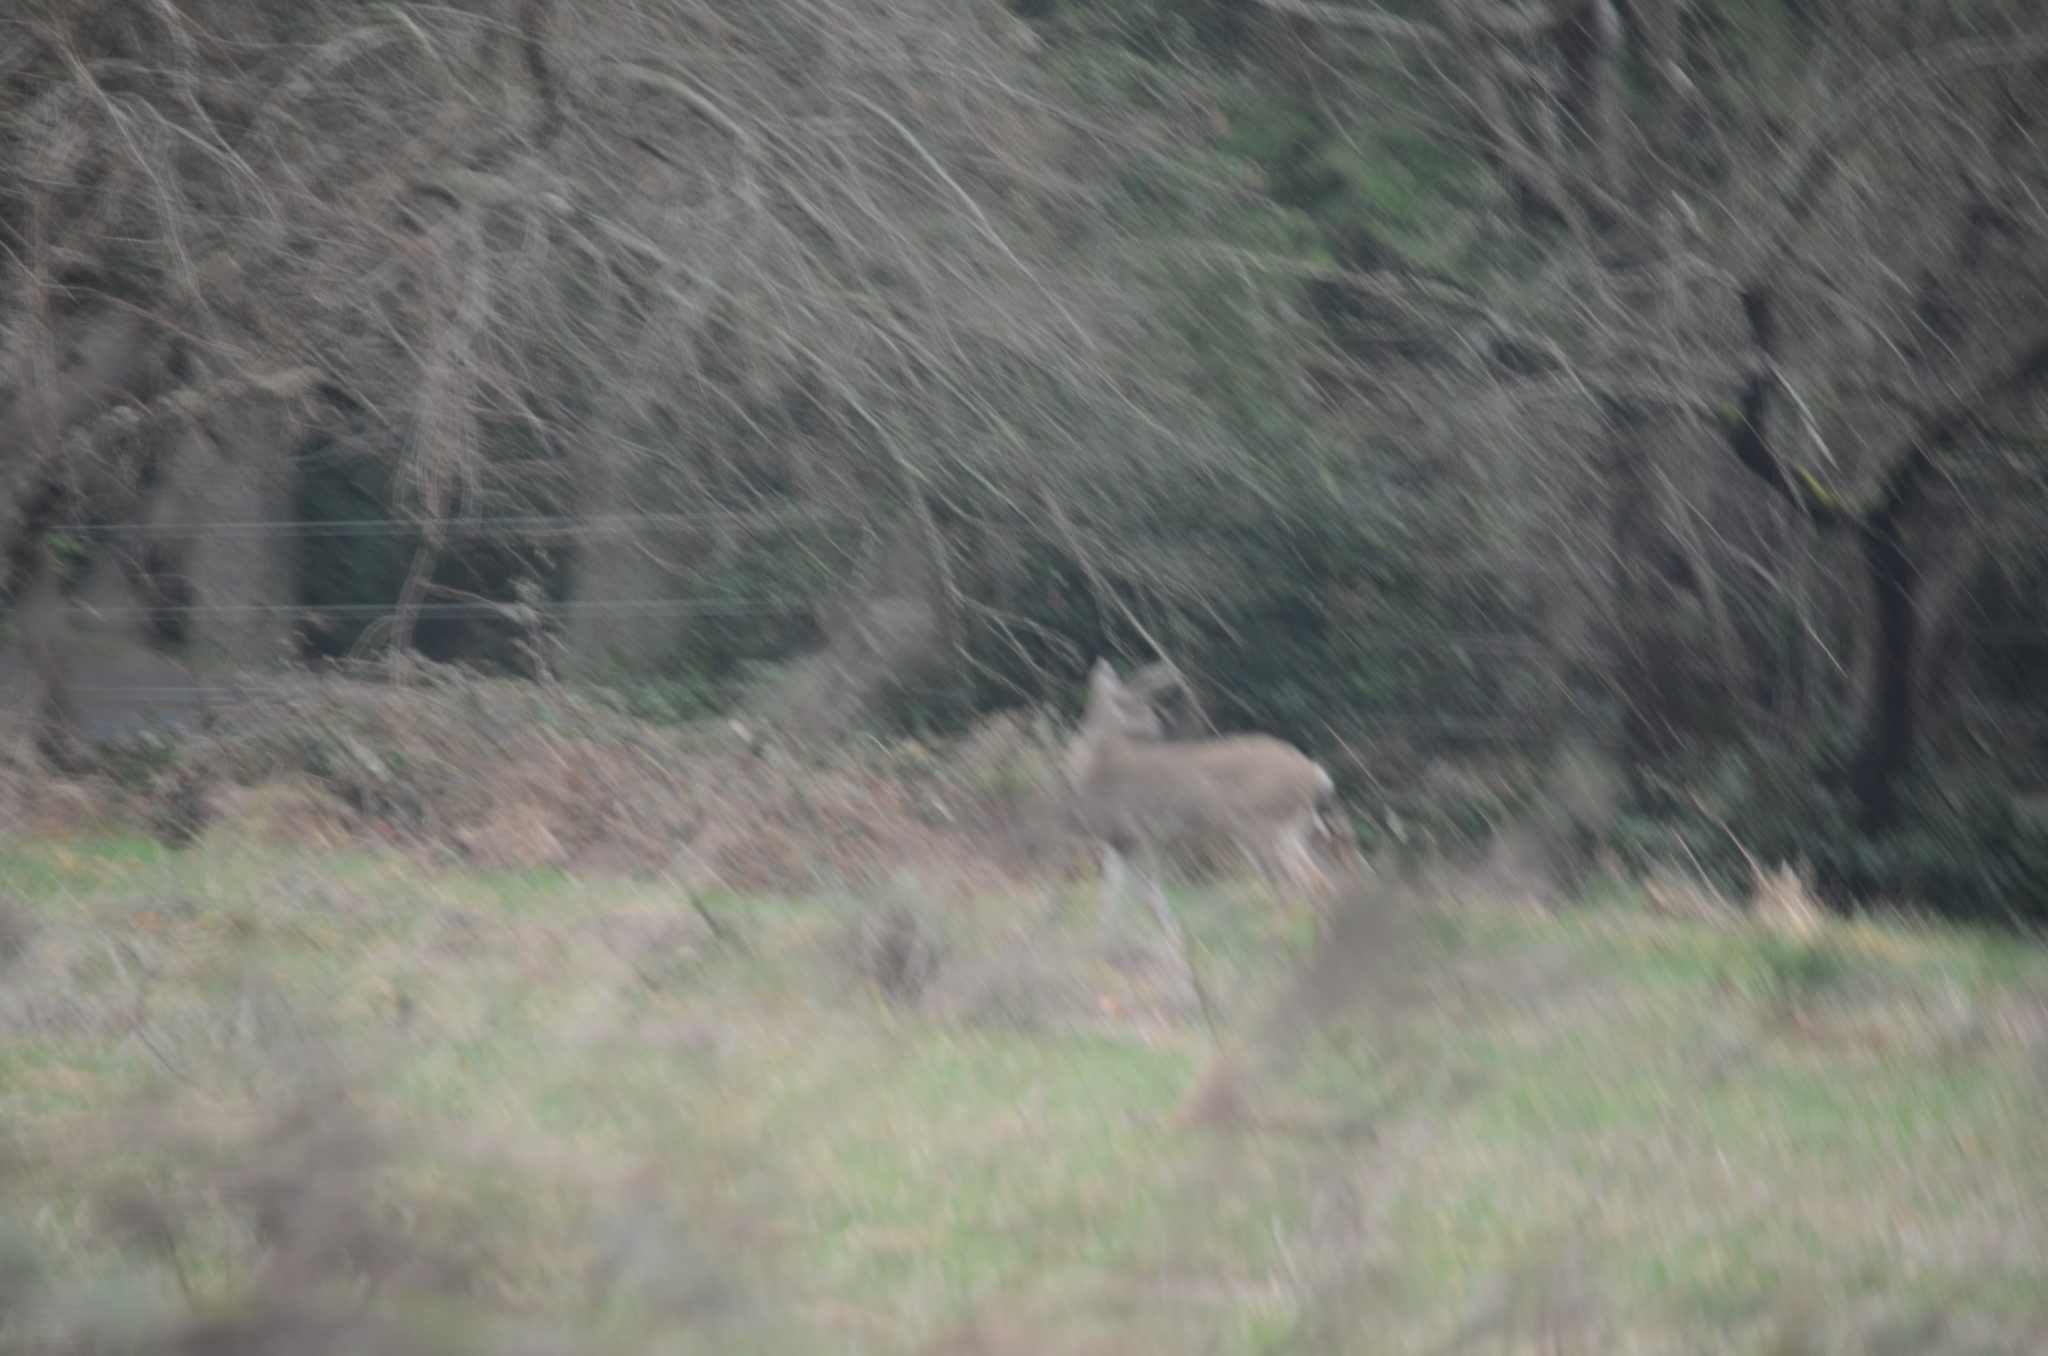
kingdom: Animalia
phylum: Chordata
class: Mammalia
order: Artiodactyla
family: Cervidae
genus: Odocoileus
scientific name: Odocoileus hemionus
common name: Mule deer
